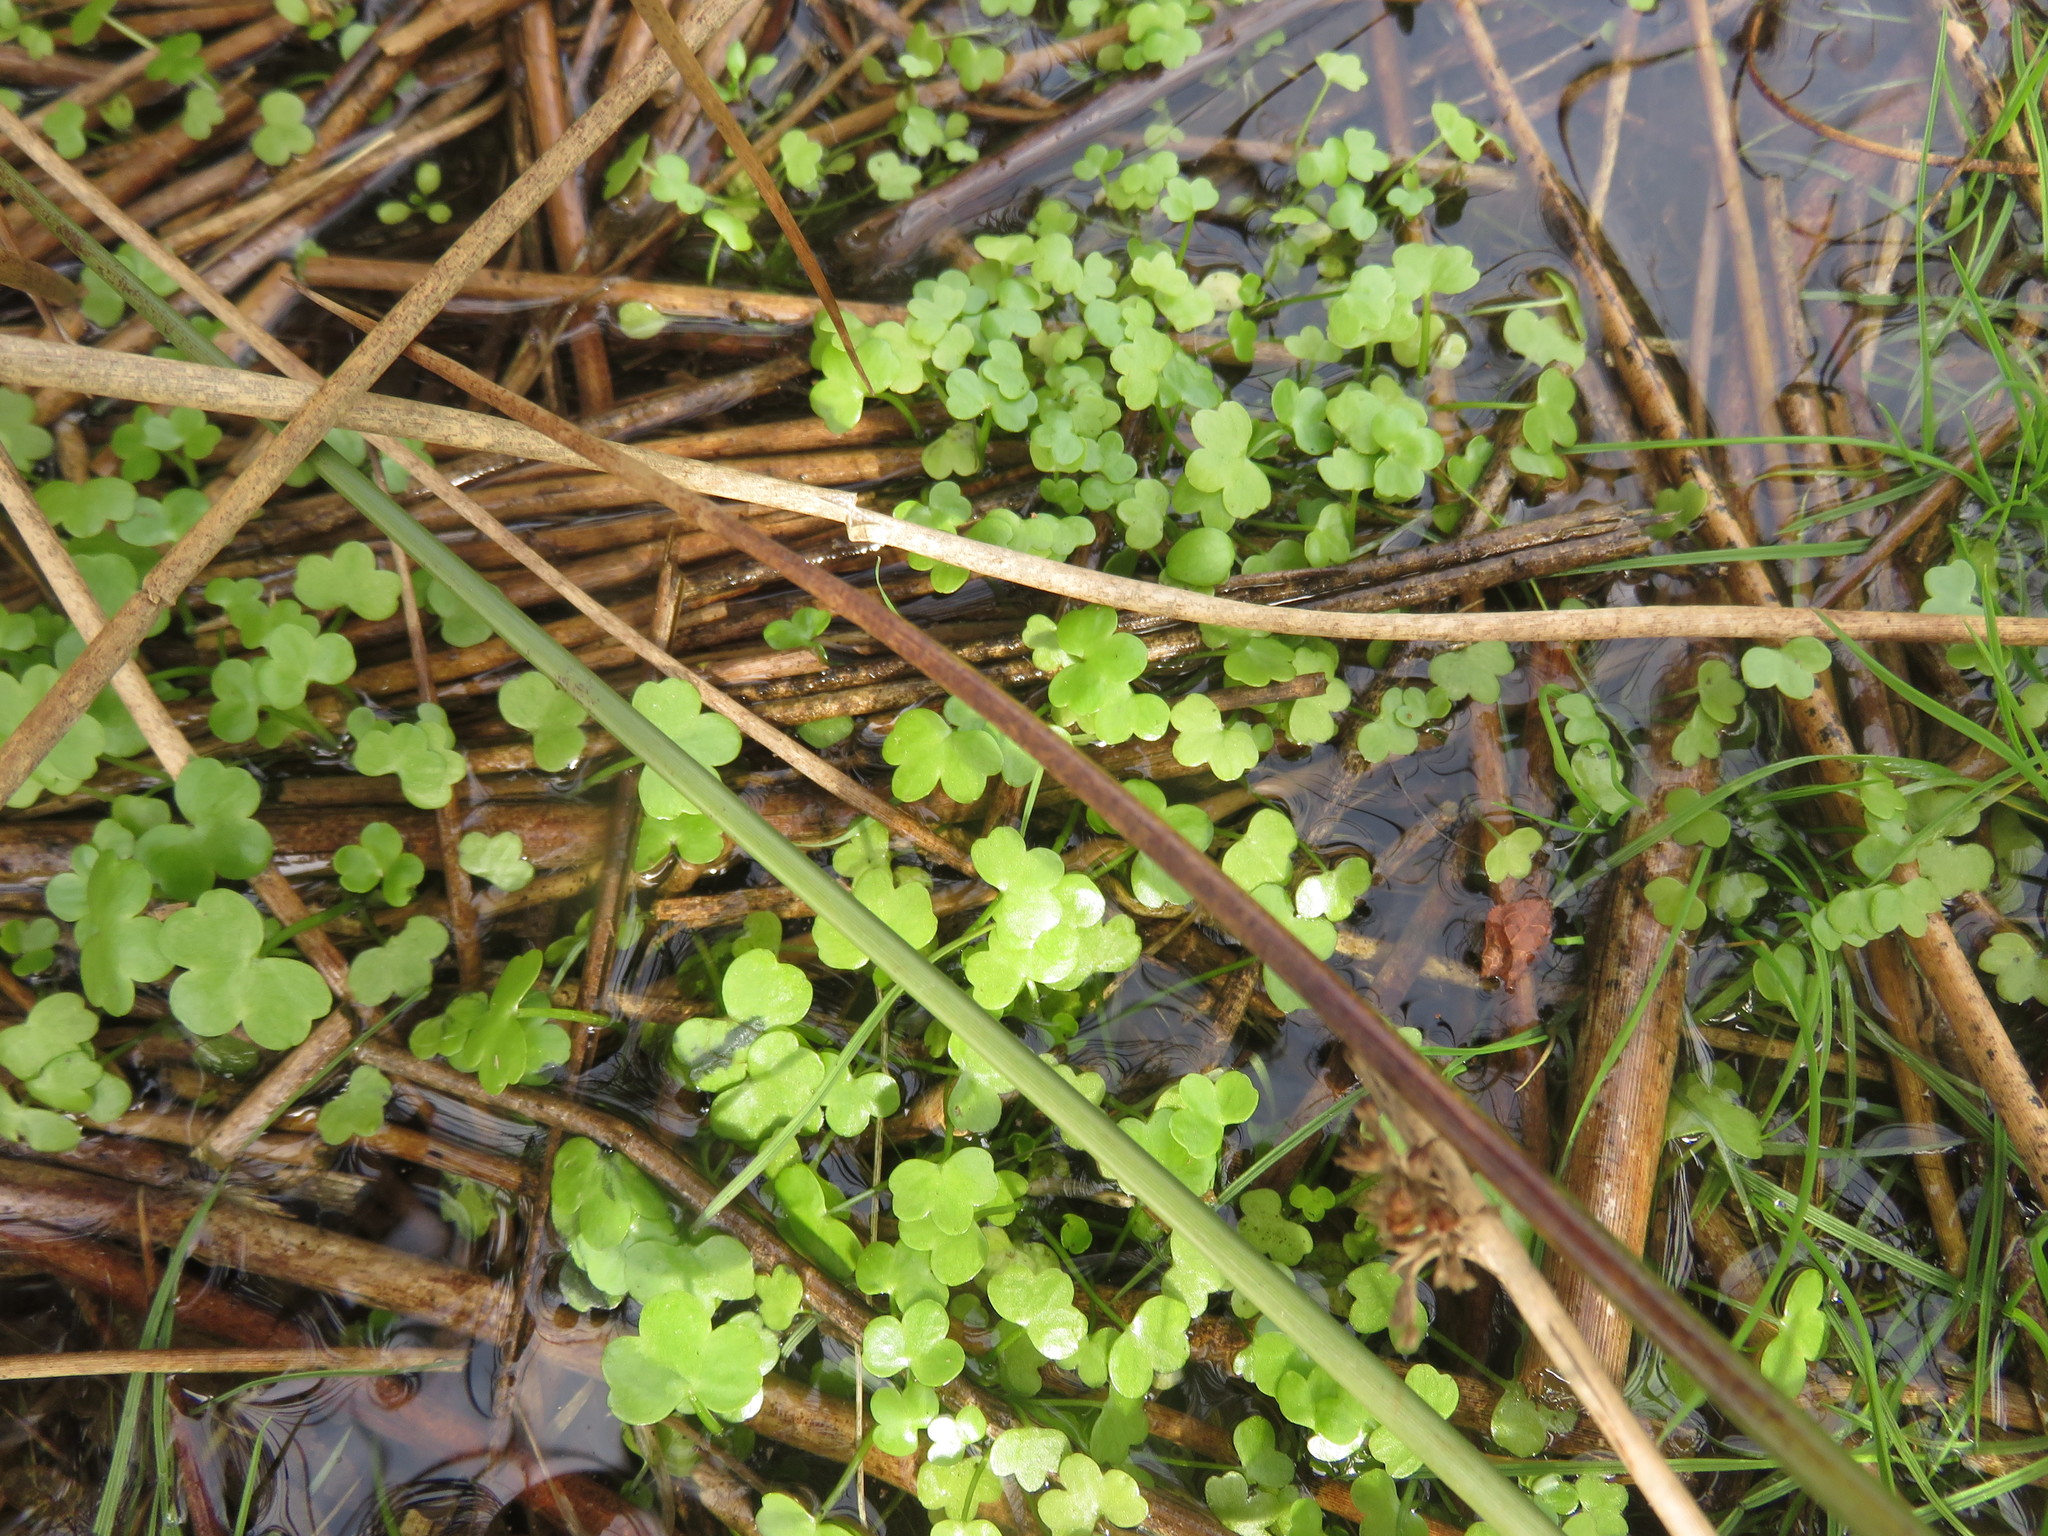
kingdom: Plantae
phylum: Tracheophyta
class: Magnoliopsida
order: Ranunculales
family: Ranunculaceae
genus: Ranunculus
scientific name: Ranunculus omiophyllus
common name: Round-leaved crowfoot
